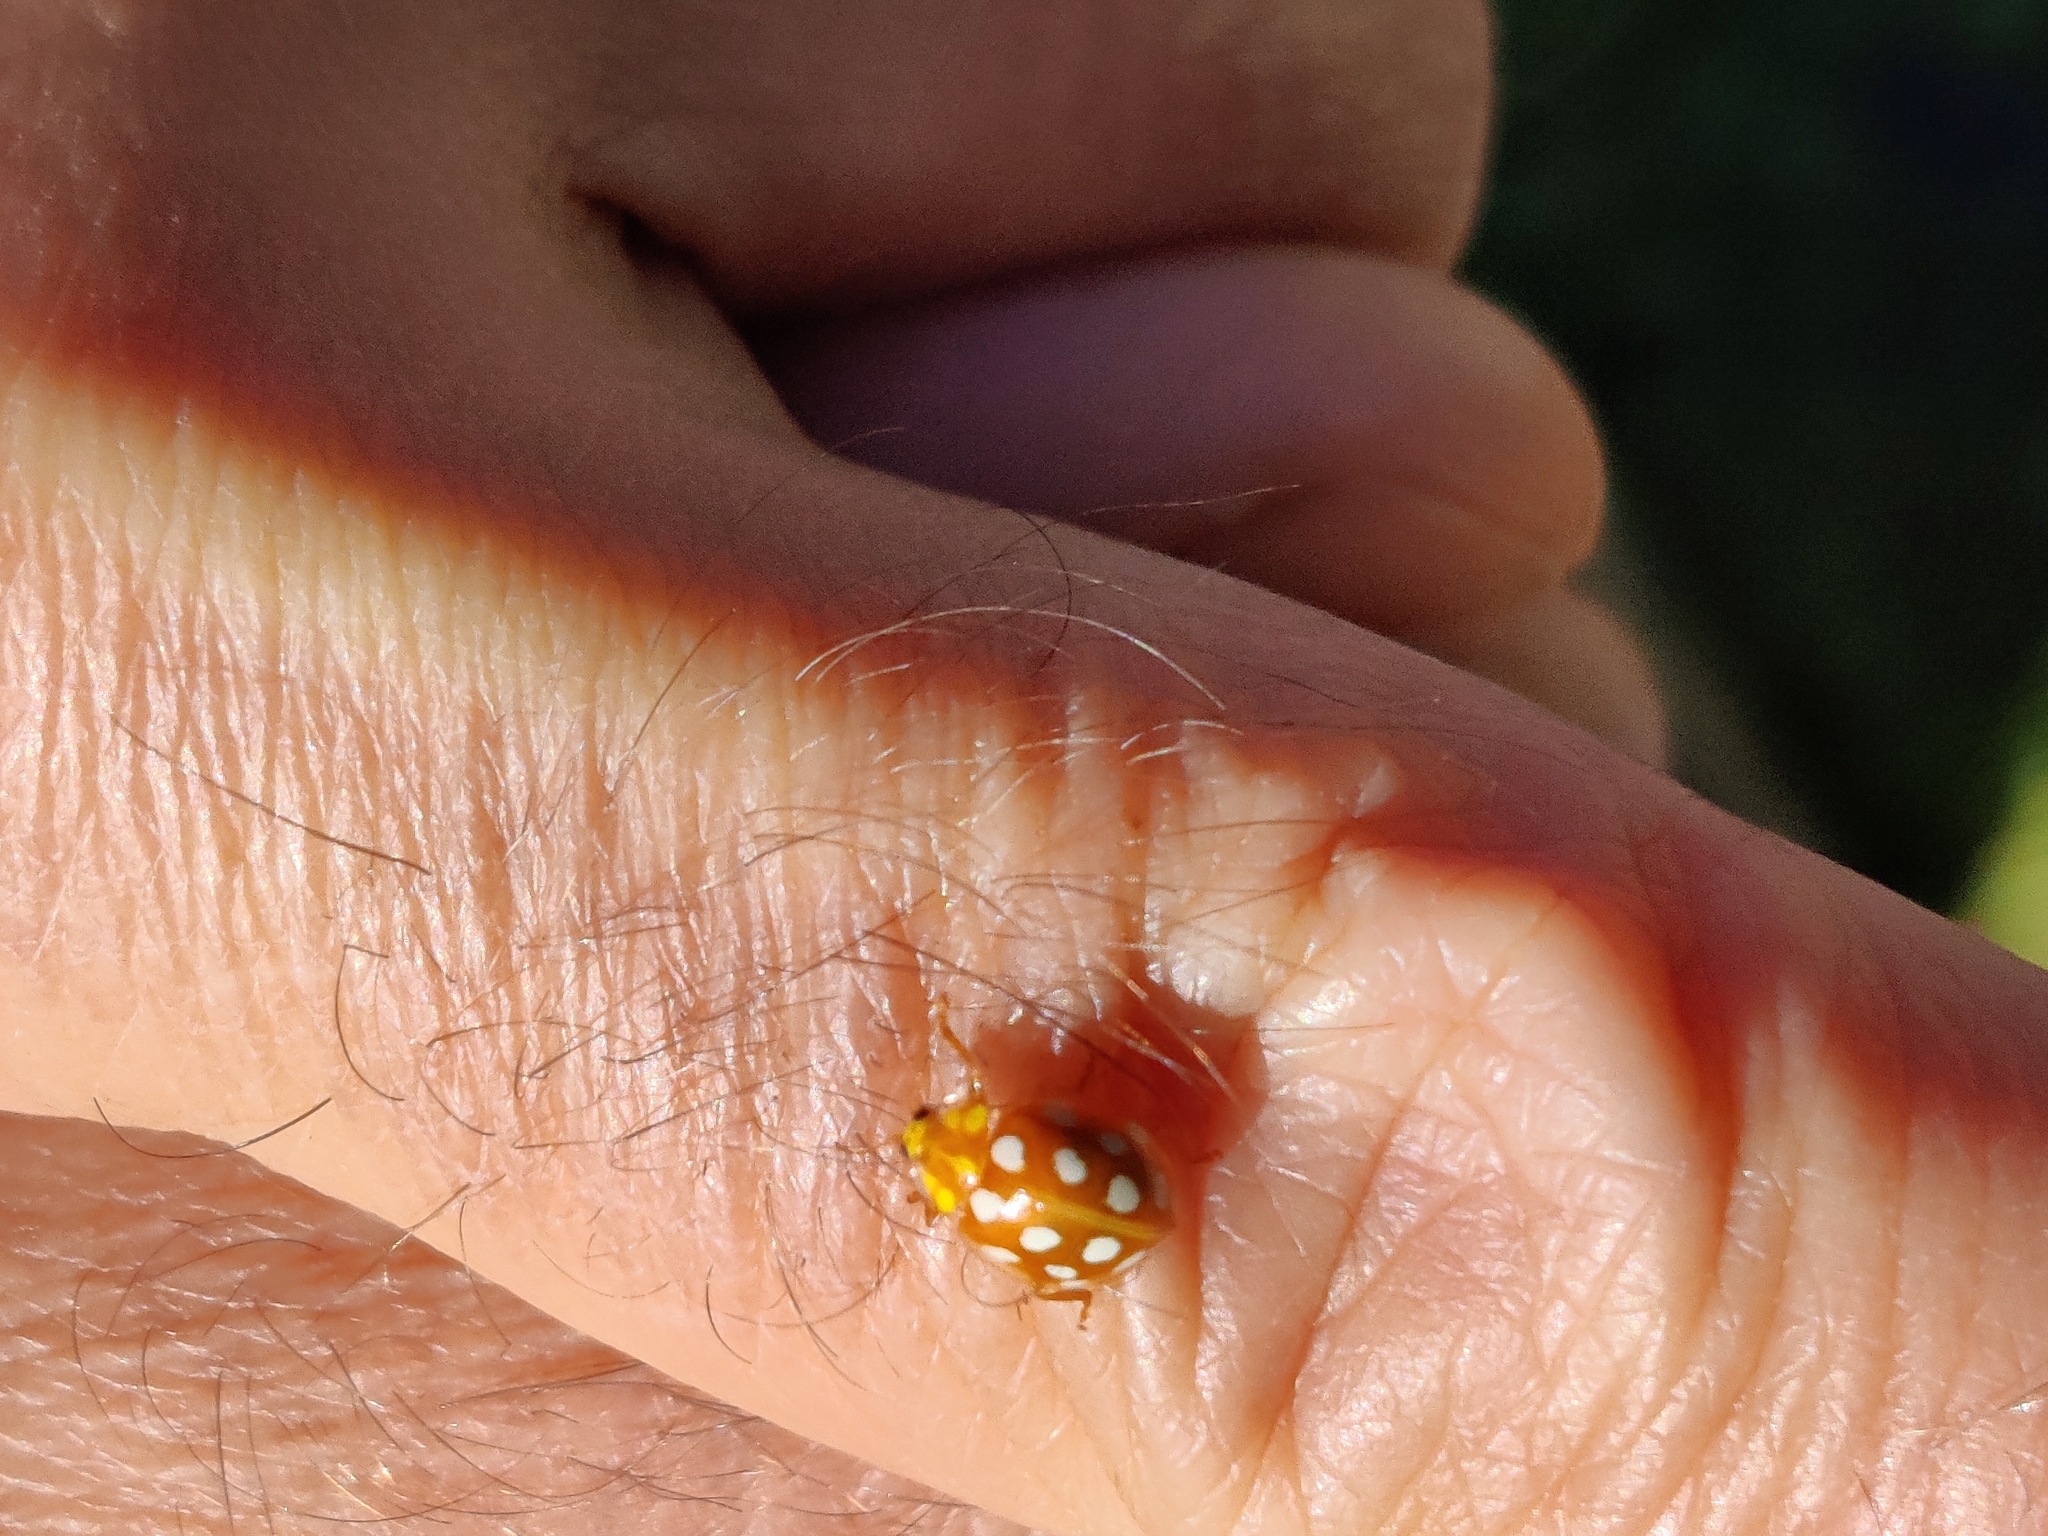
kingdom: Animalia
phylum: Arthropoda
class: Insecta
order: Coleoptera
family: Coccinellidae
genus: Halyzia
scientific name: Halyzia sedecimguttata
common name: Orange ladybird
